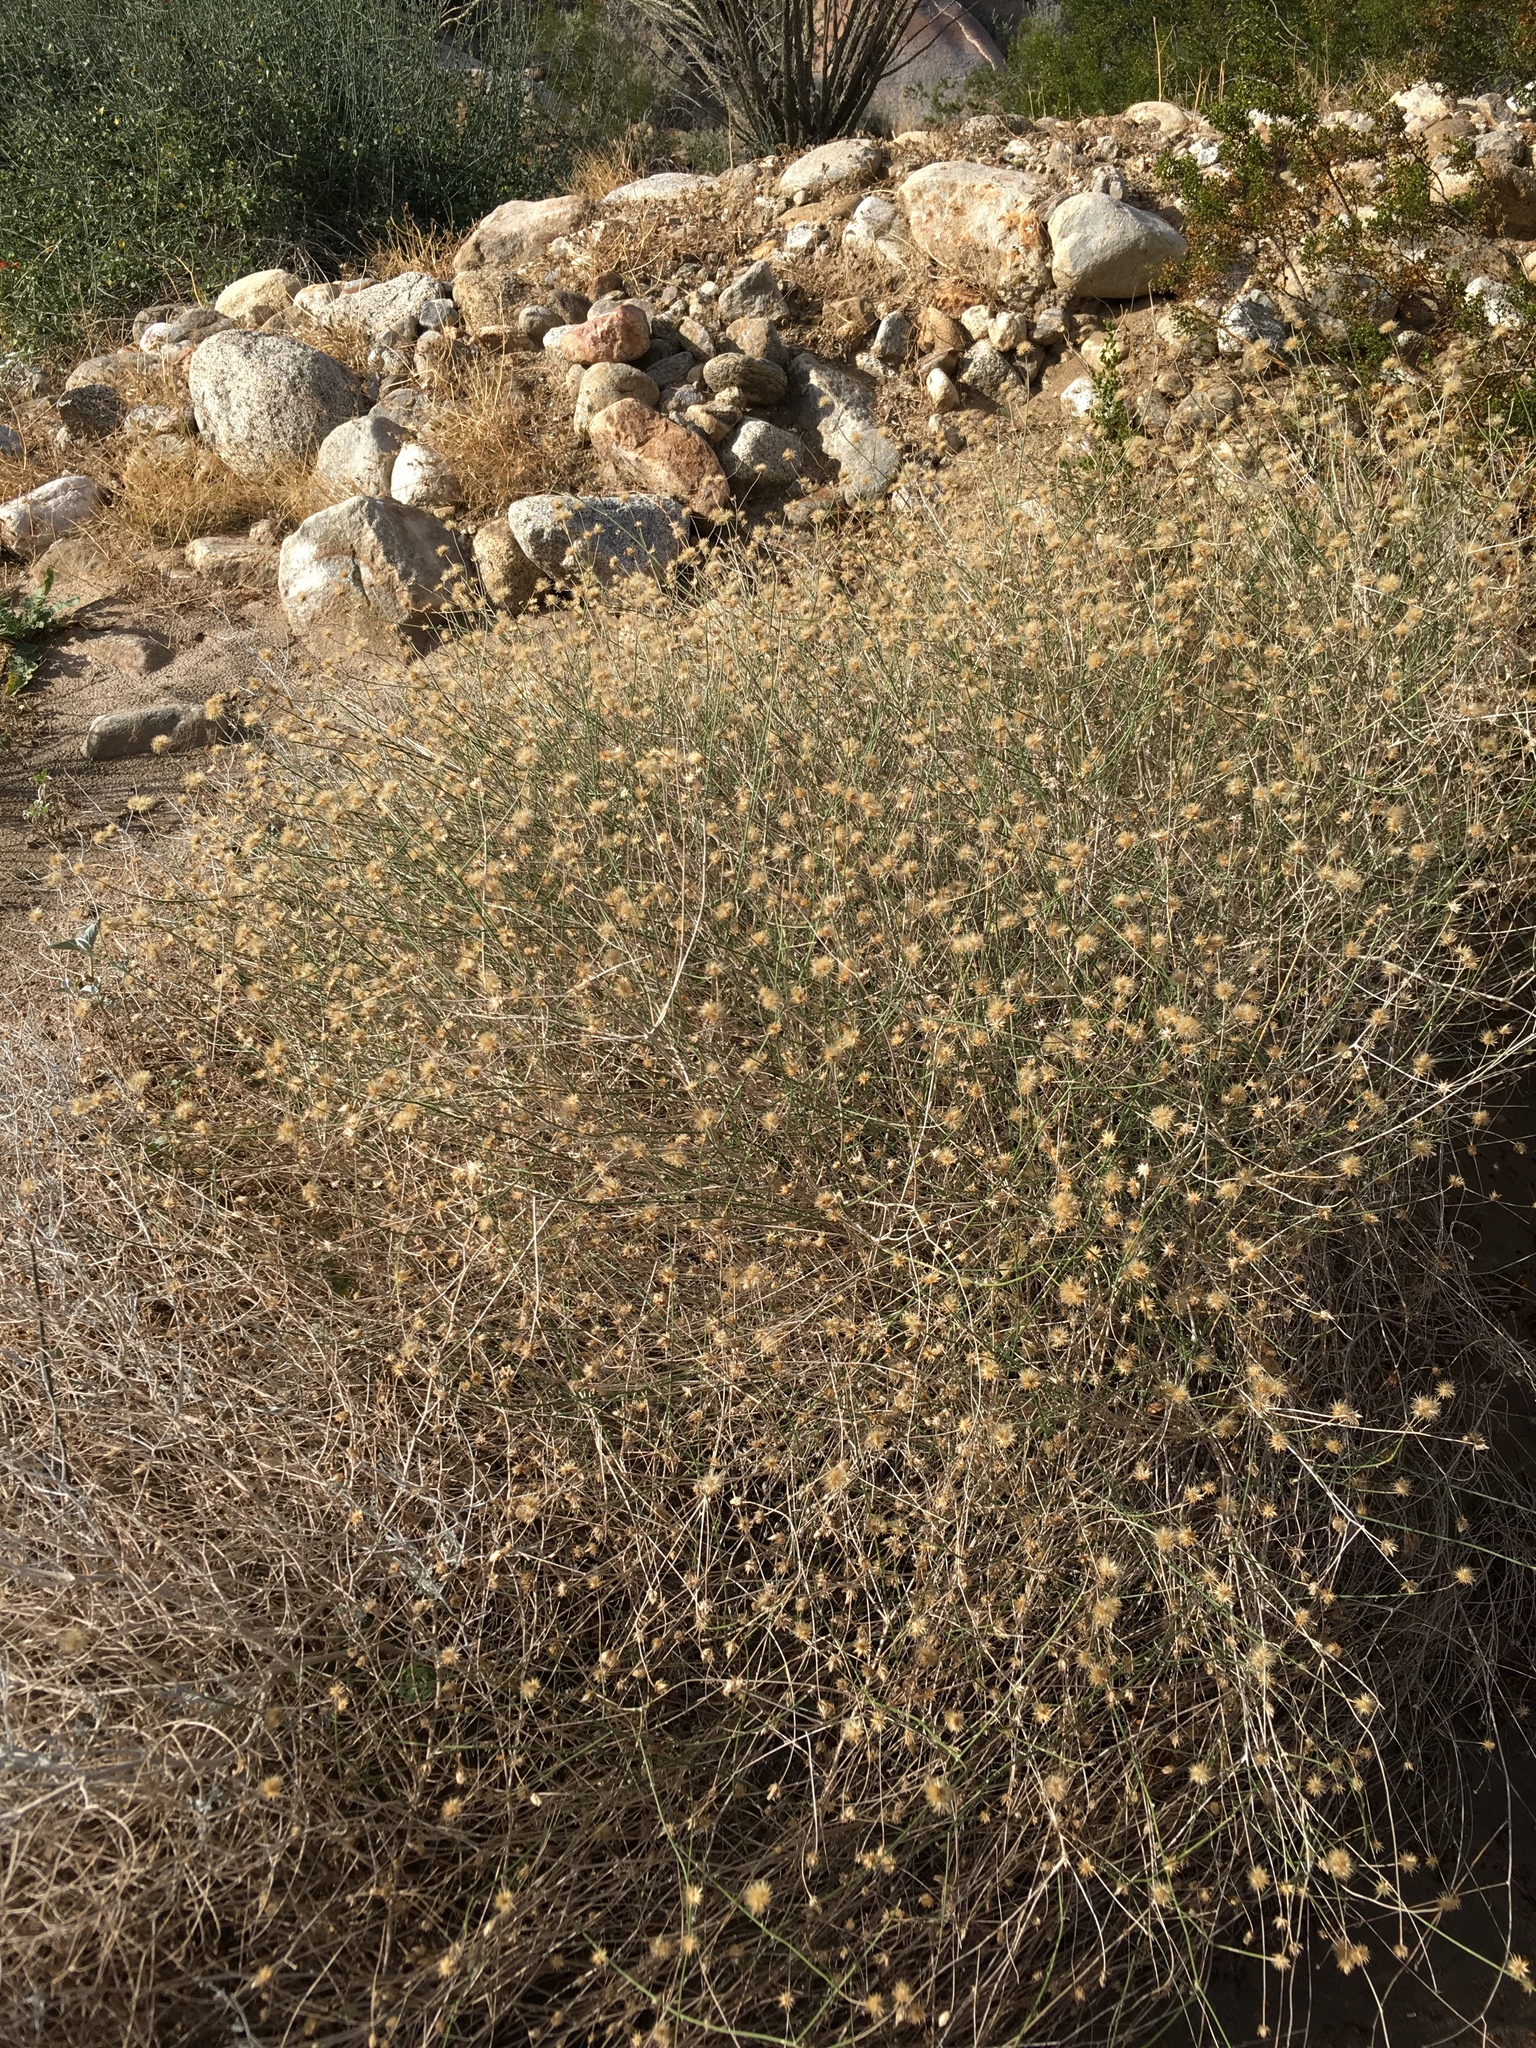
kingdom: Plantae
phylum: Tracheophyta
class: Magnoliopsida
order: Asterales
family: Asteraceae
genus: Bebbia
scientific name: Bebbia juncea
